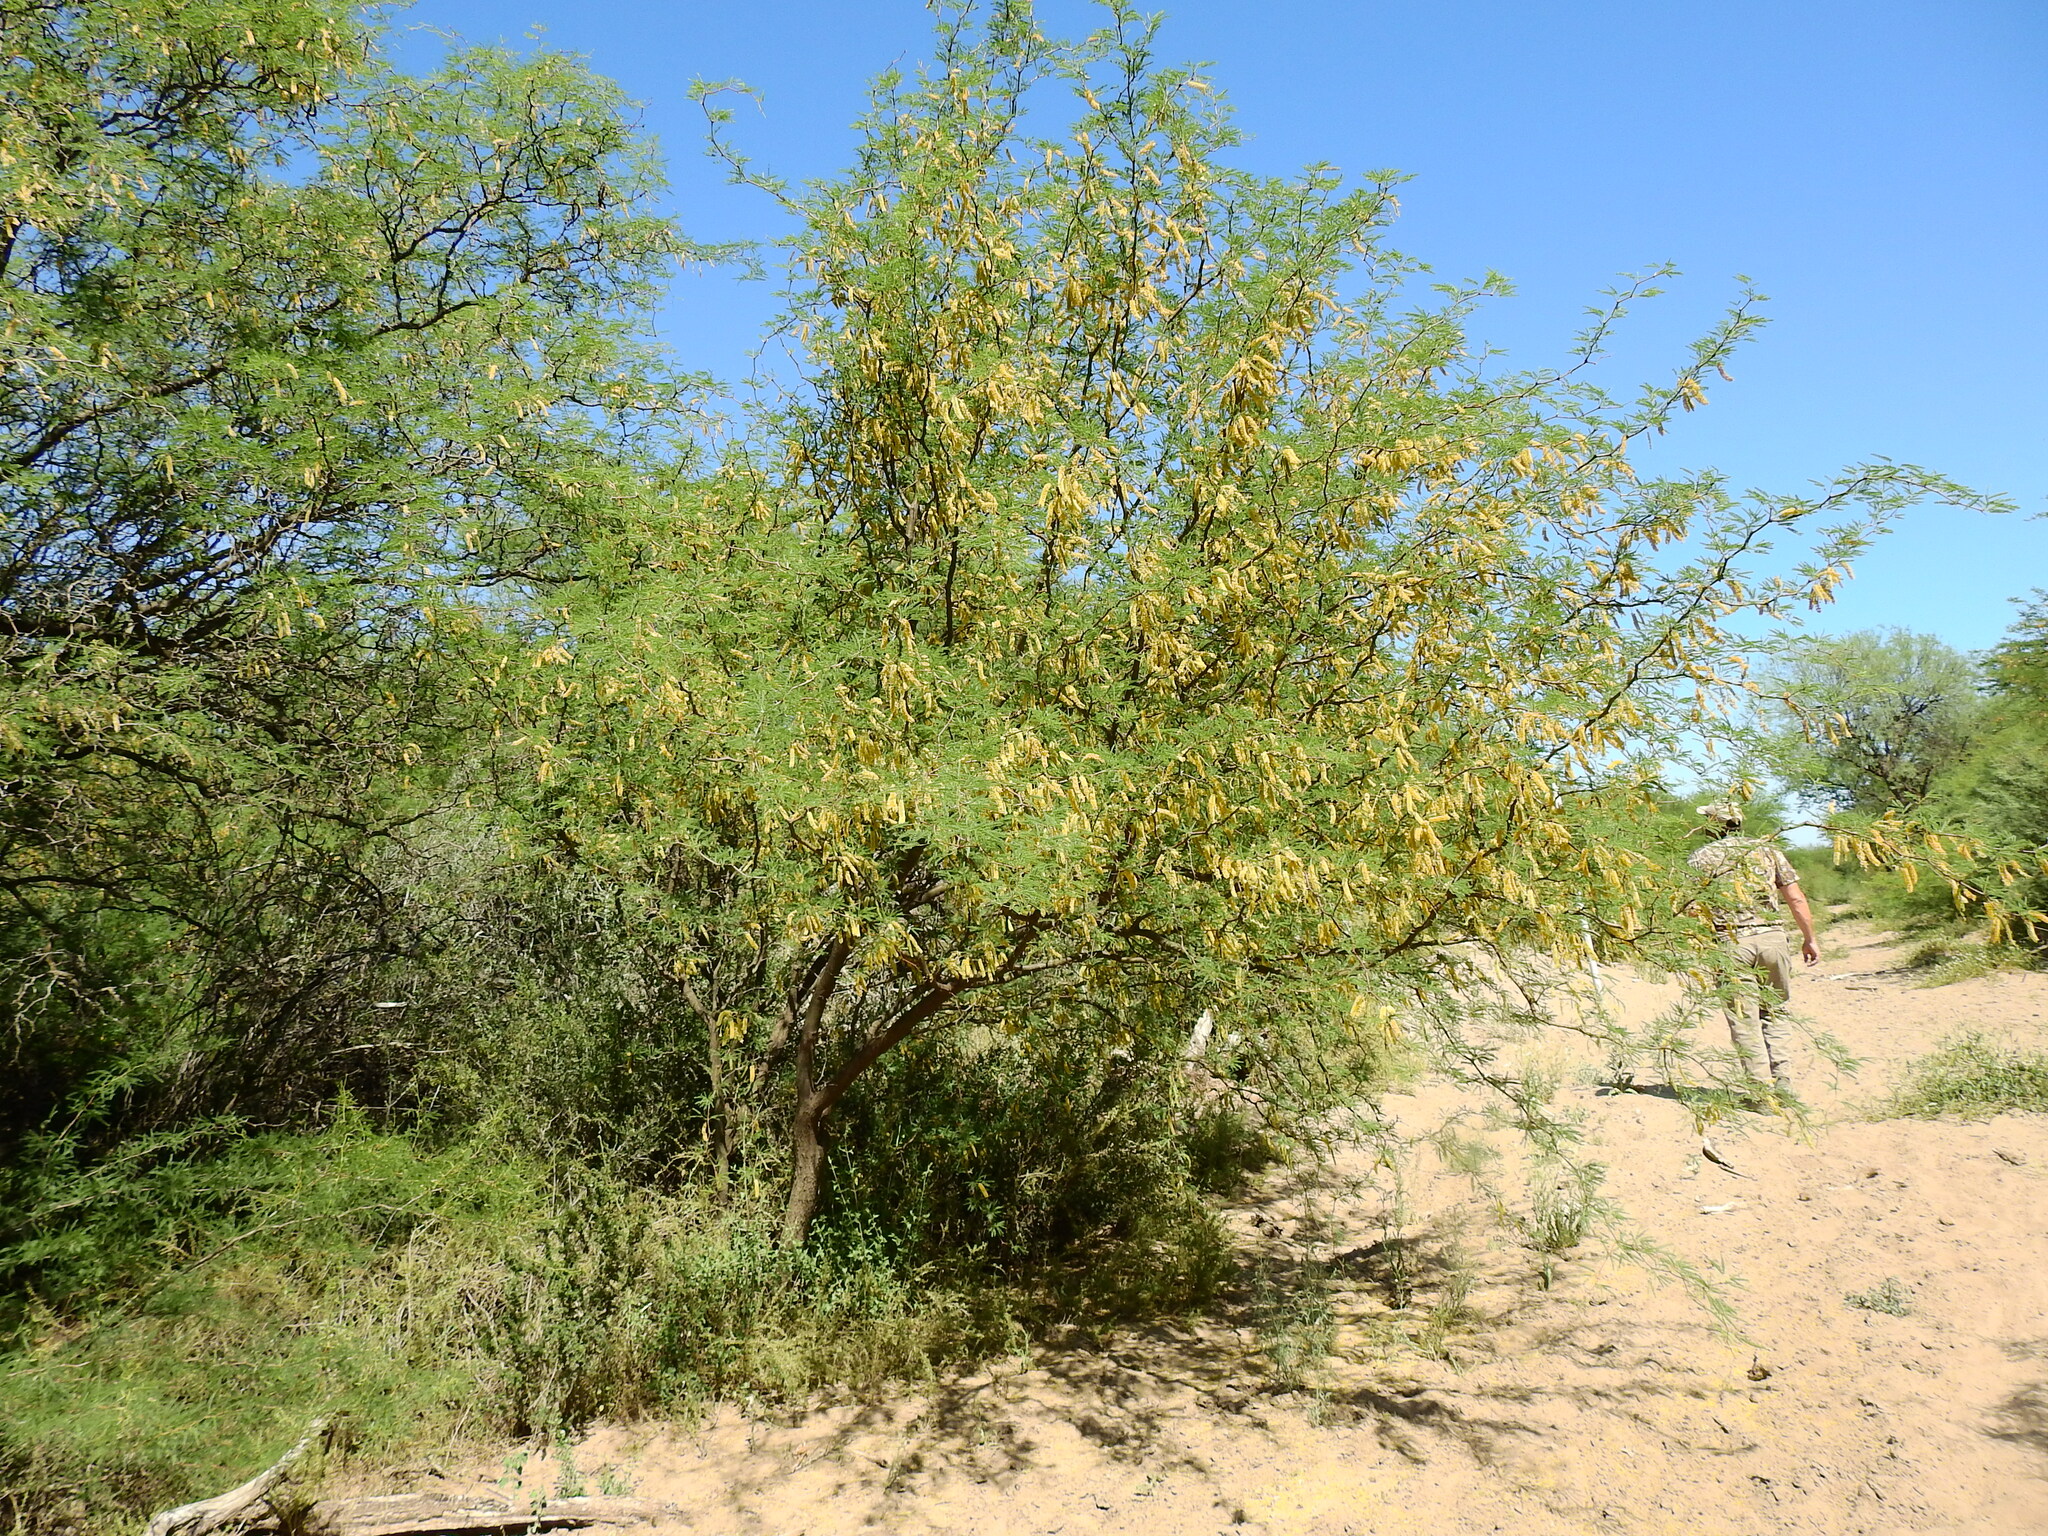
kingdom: Plantae
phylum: Tracheophyta
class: Magnoliopsida
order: Fabales
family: Fabaceae
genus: Prosopis
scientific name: Prosopis flexuosa
